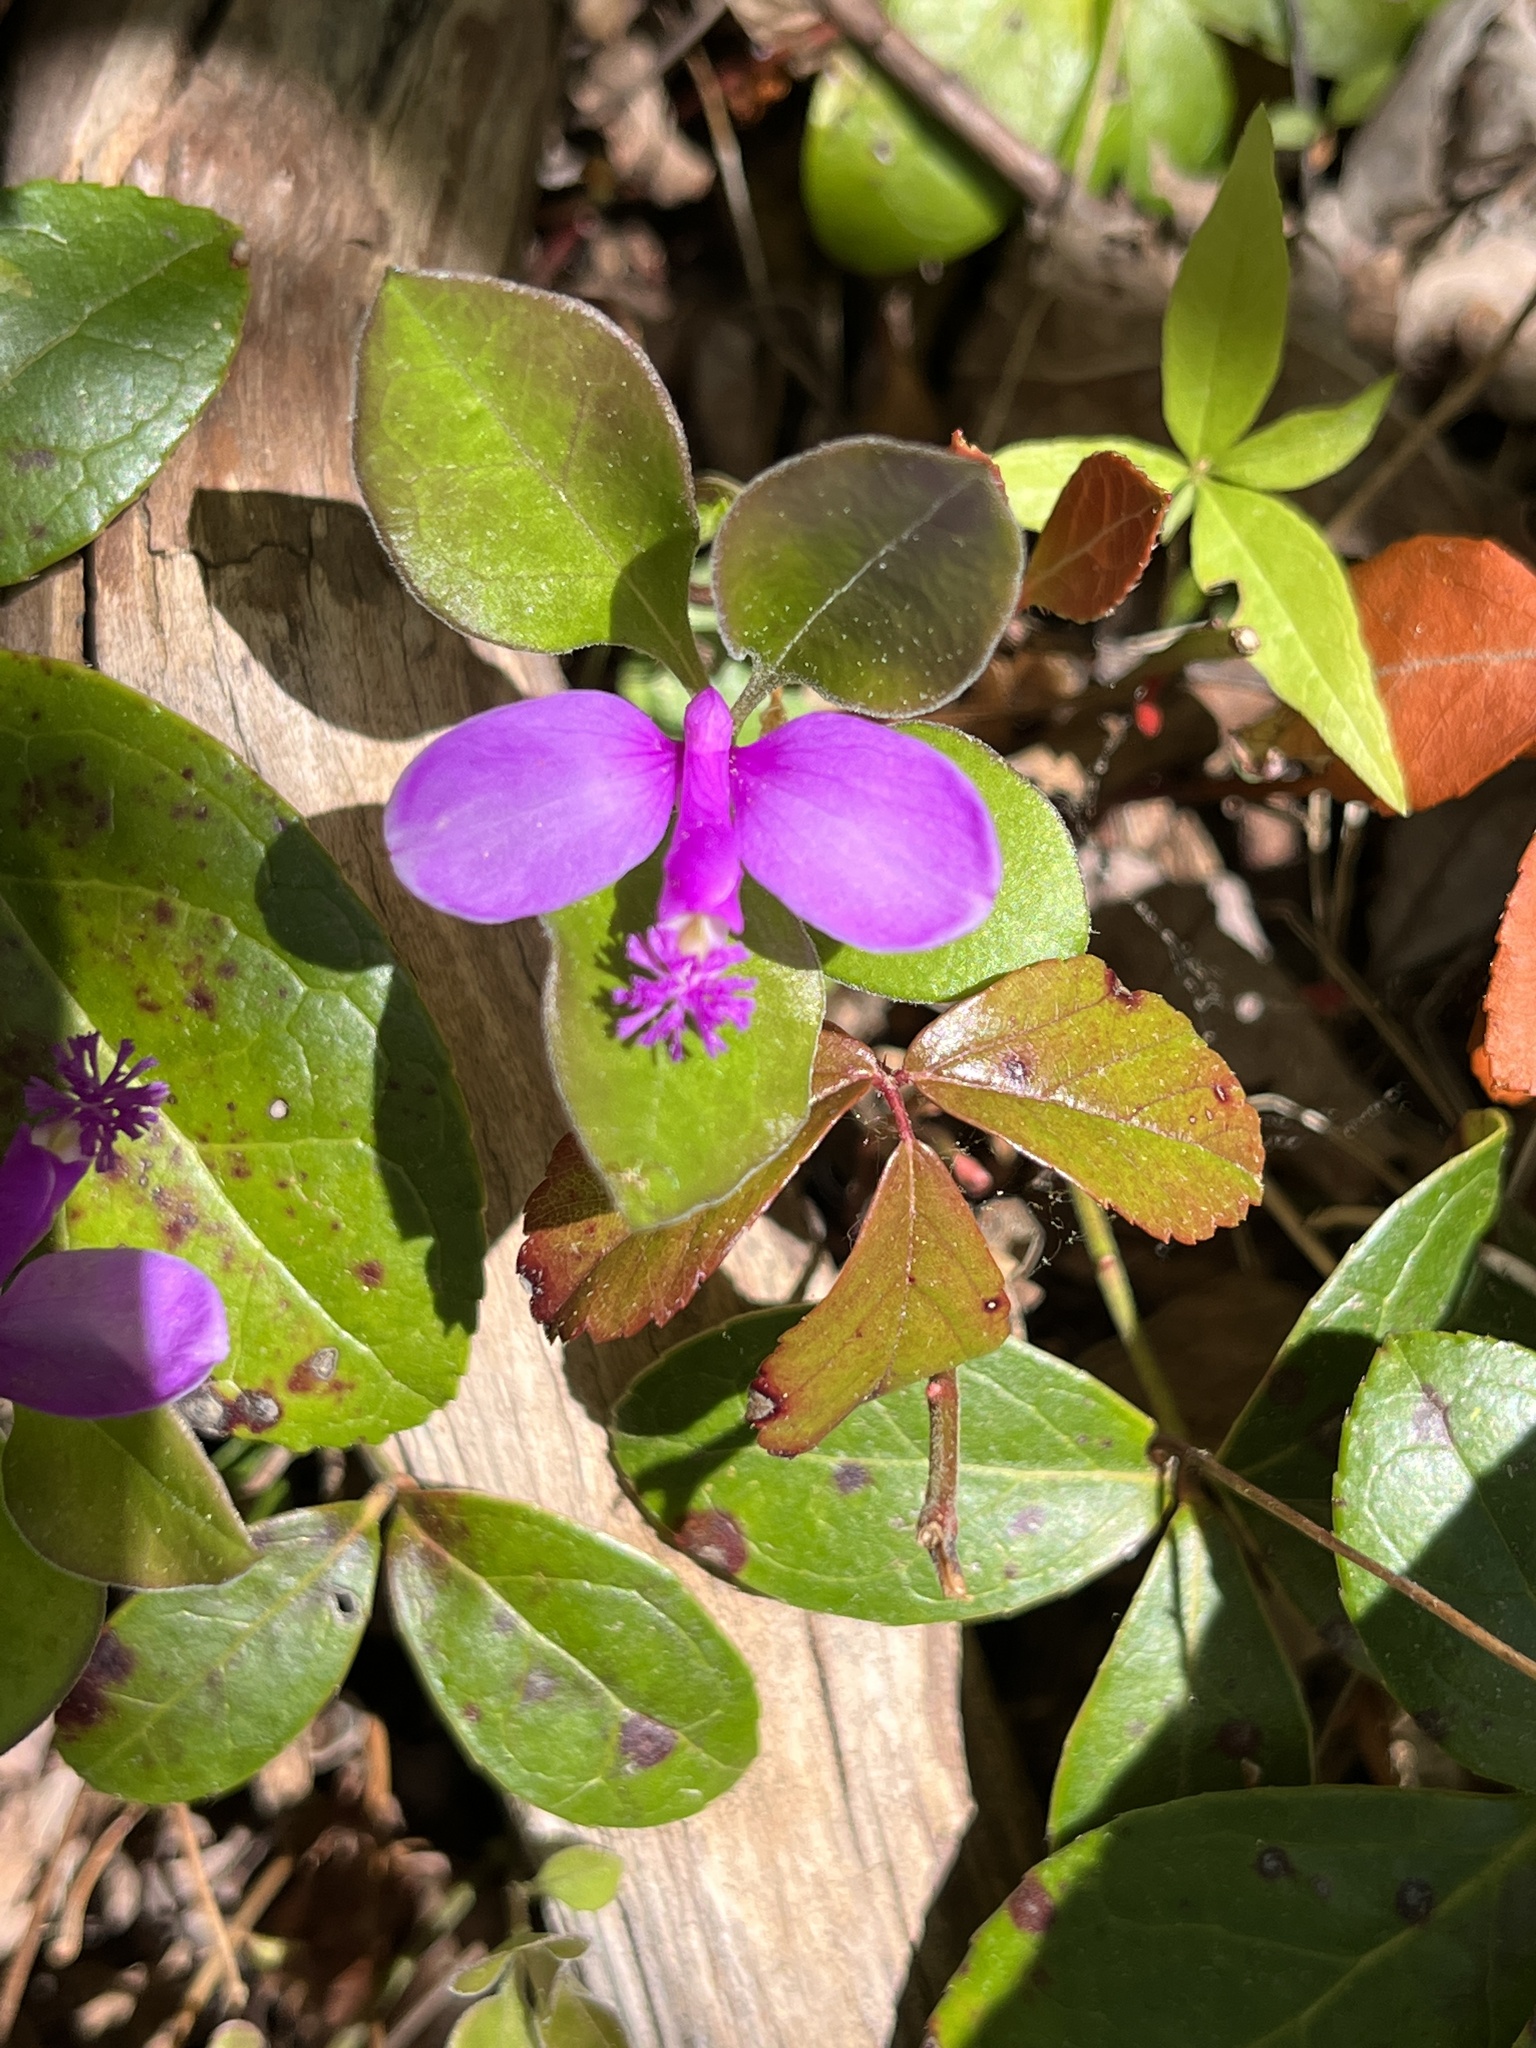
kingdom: Plantae
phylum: Tracheophyta
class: Magnoliopsida
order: Fabales
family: Polygalaceae
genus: Polygaloides
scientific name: Polygaloides paucifolia
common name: Bird-on-the-wing
